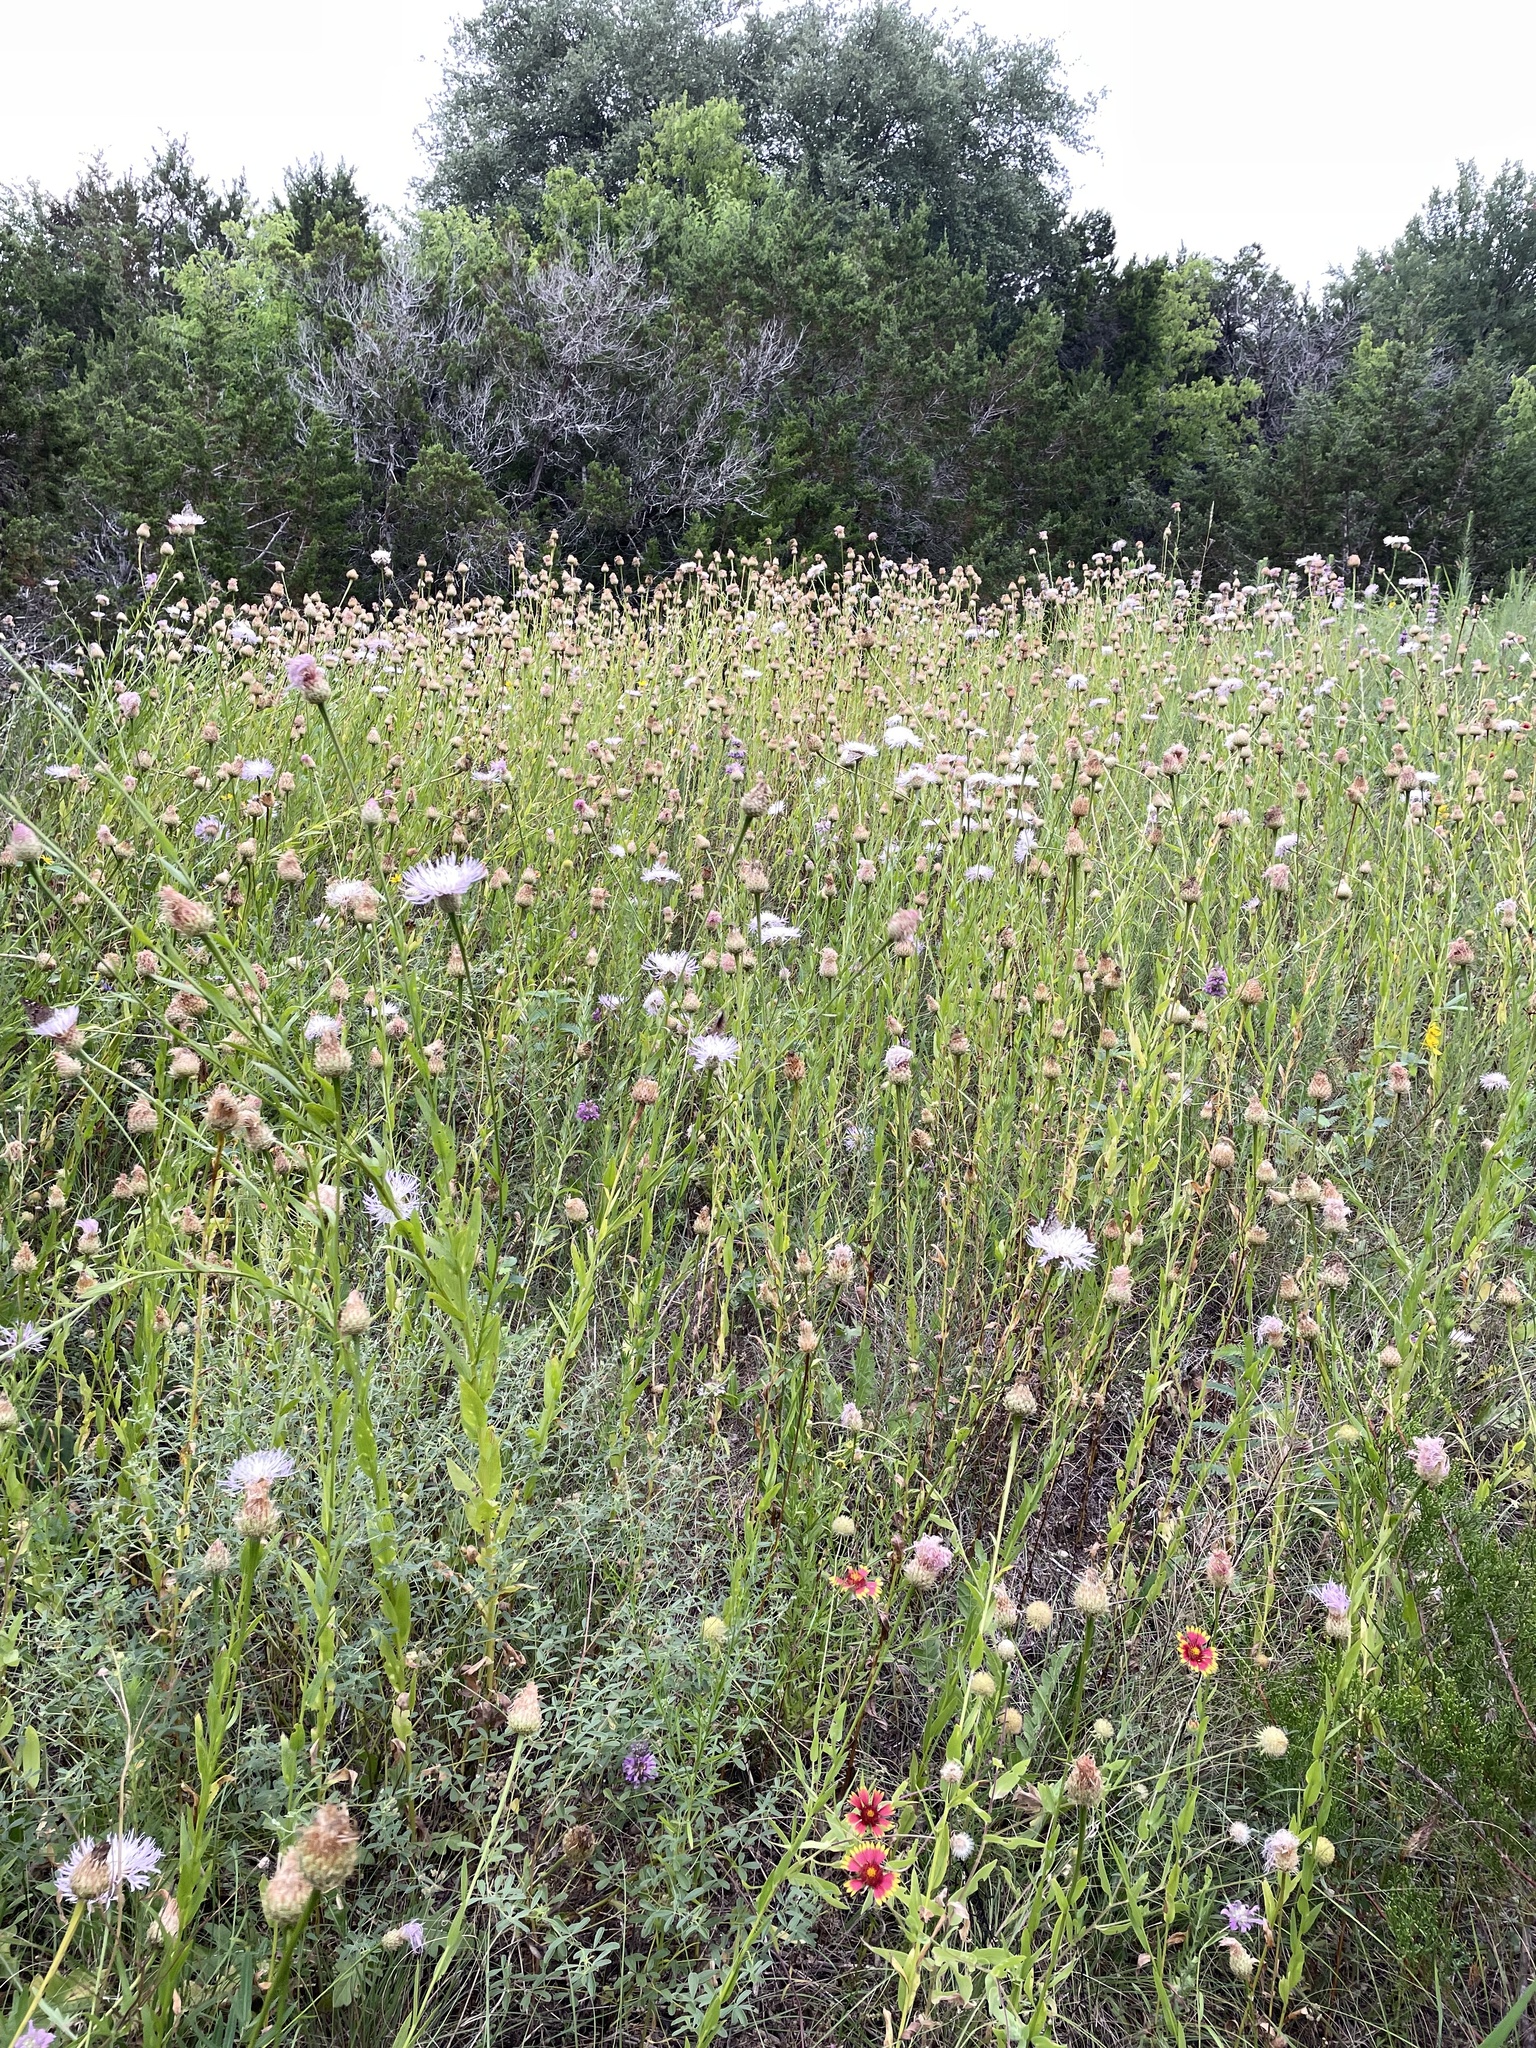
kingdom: Plantae
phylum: Tracheophyta
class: Magnoliopsida
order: Asterales
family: Asteraceae
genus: Plectocephalus
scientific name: Plectocephalus americanus
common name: American basket-flower
